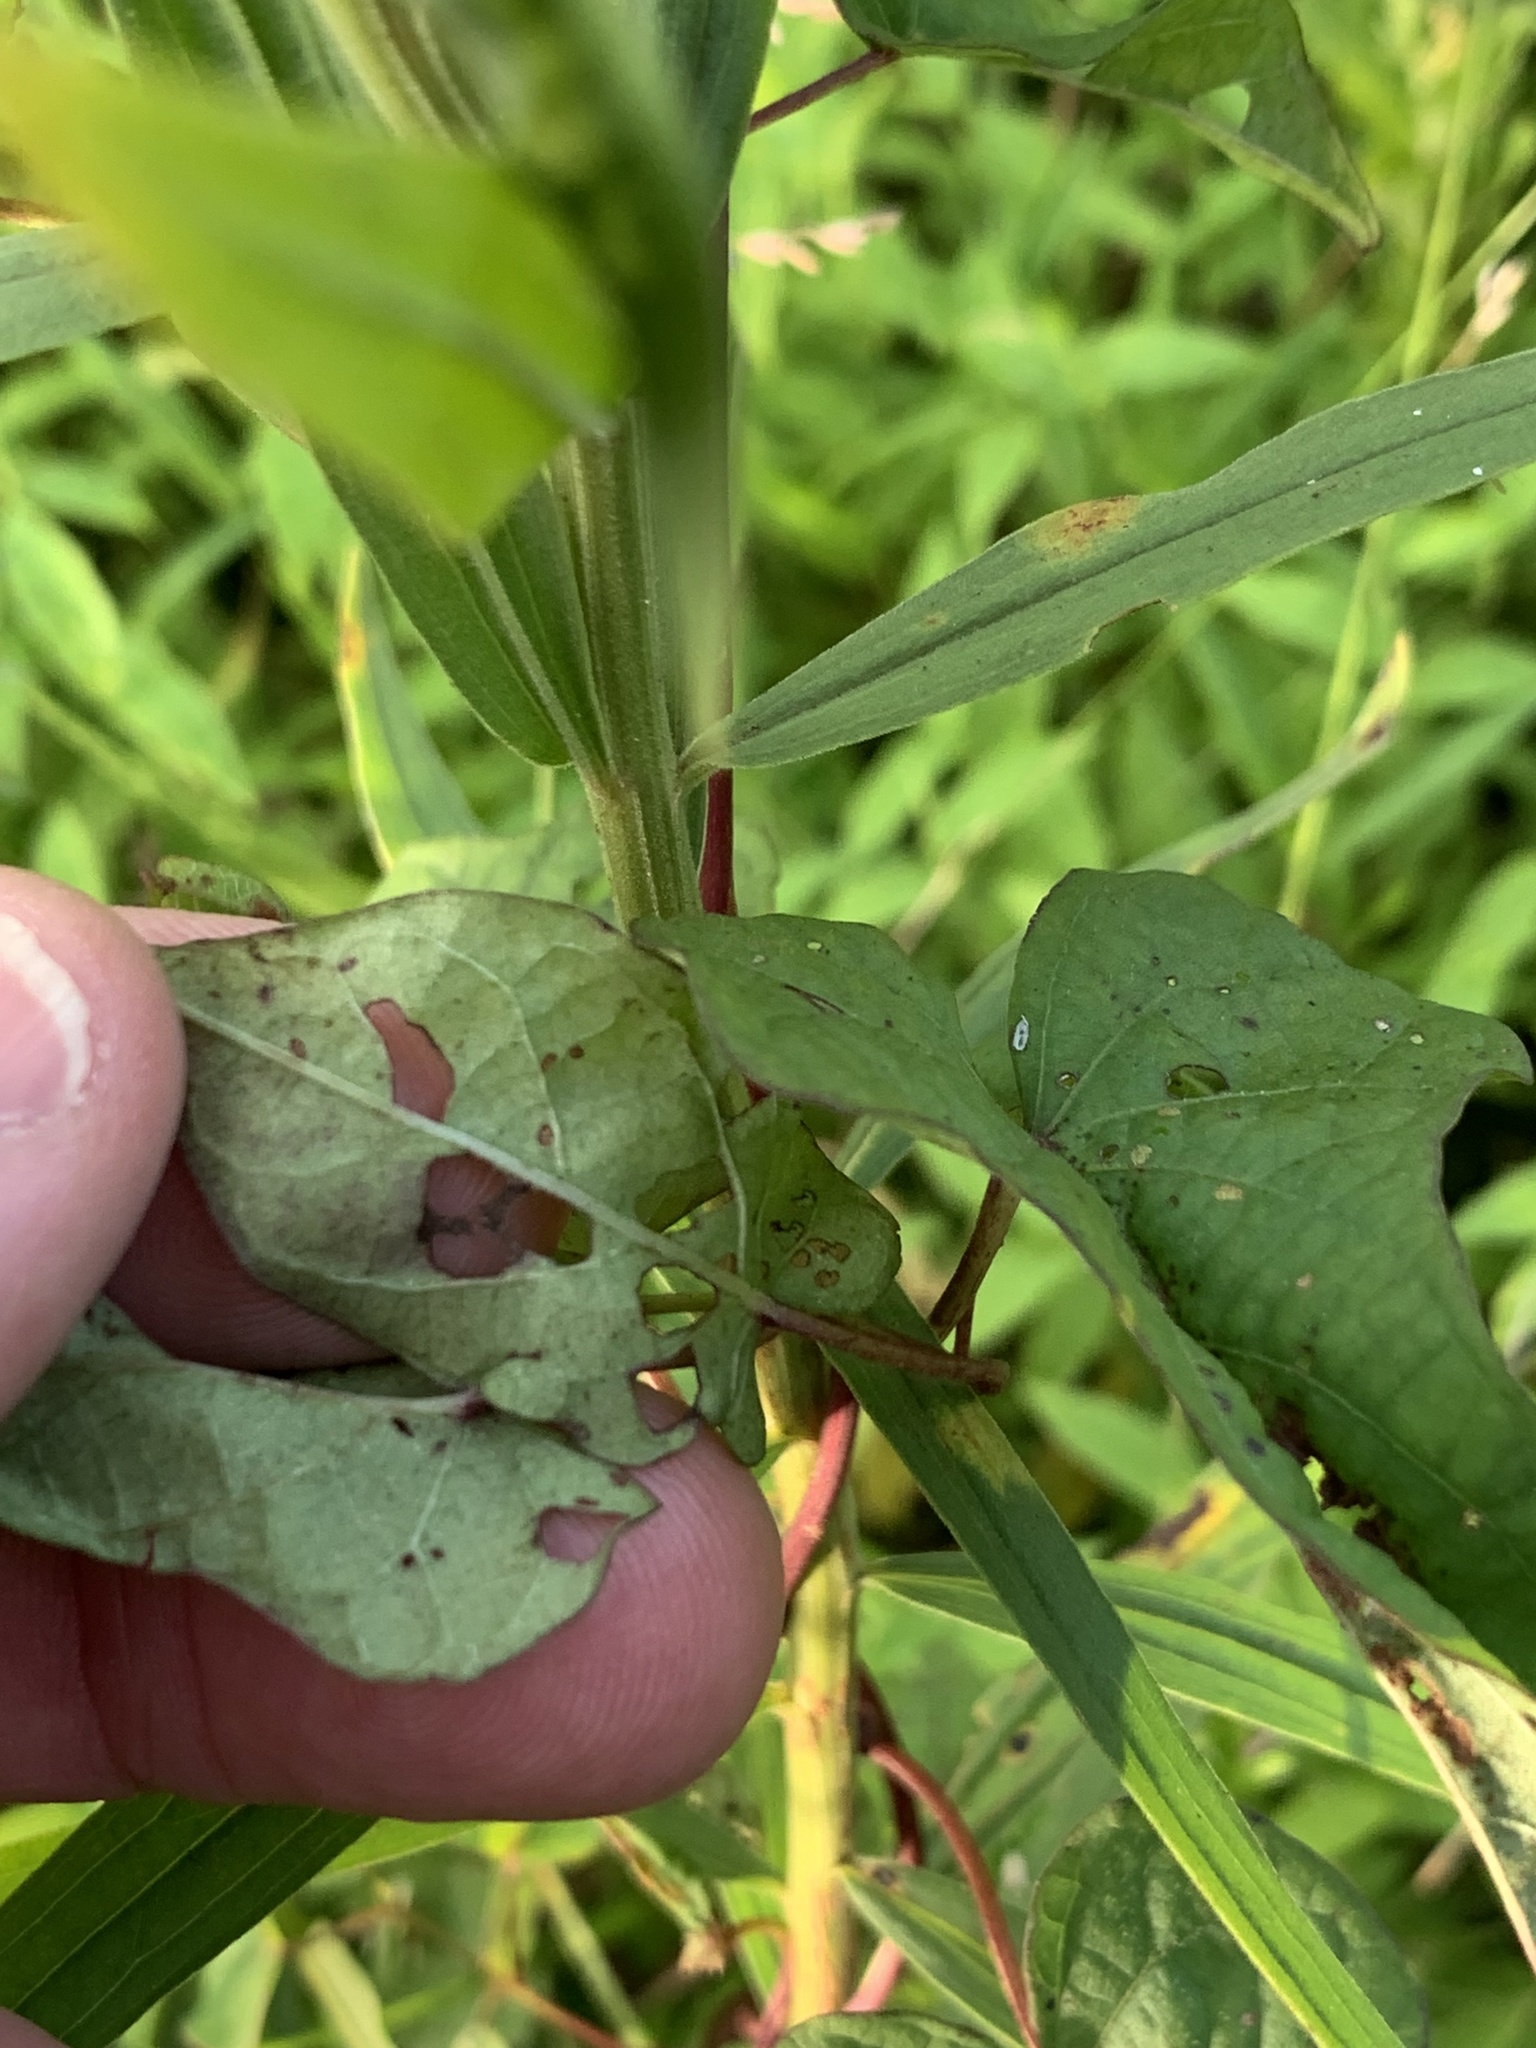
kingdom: Plantae
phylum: Tracheophyta
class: Magnoliopsida
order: Solanales
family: Convolvulaceae
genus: Ipomoea
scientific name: Ipomoea pandurata
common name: Man-of-the-earth
